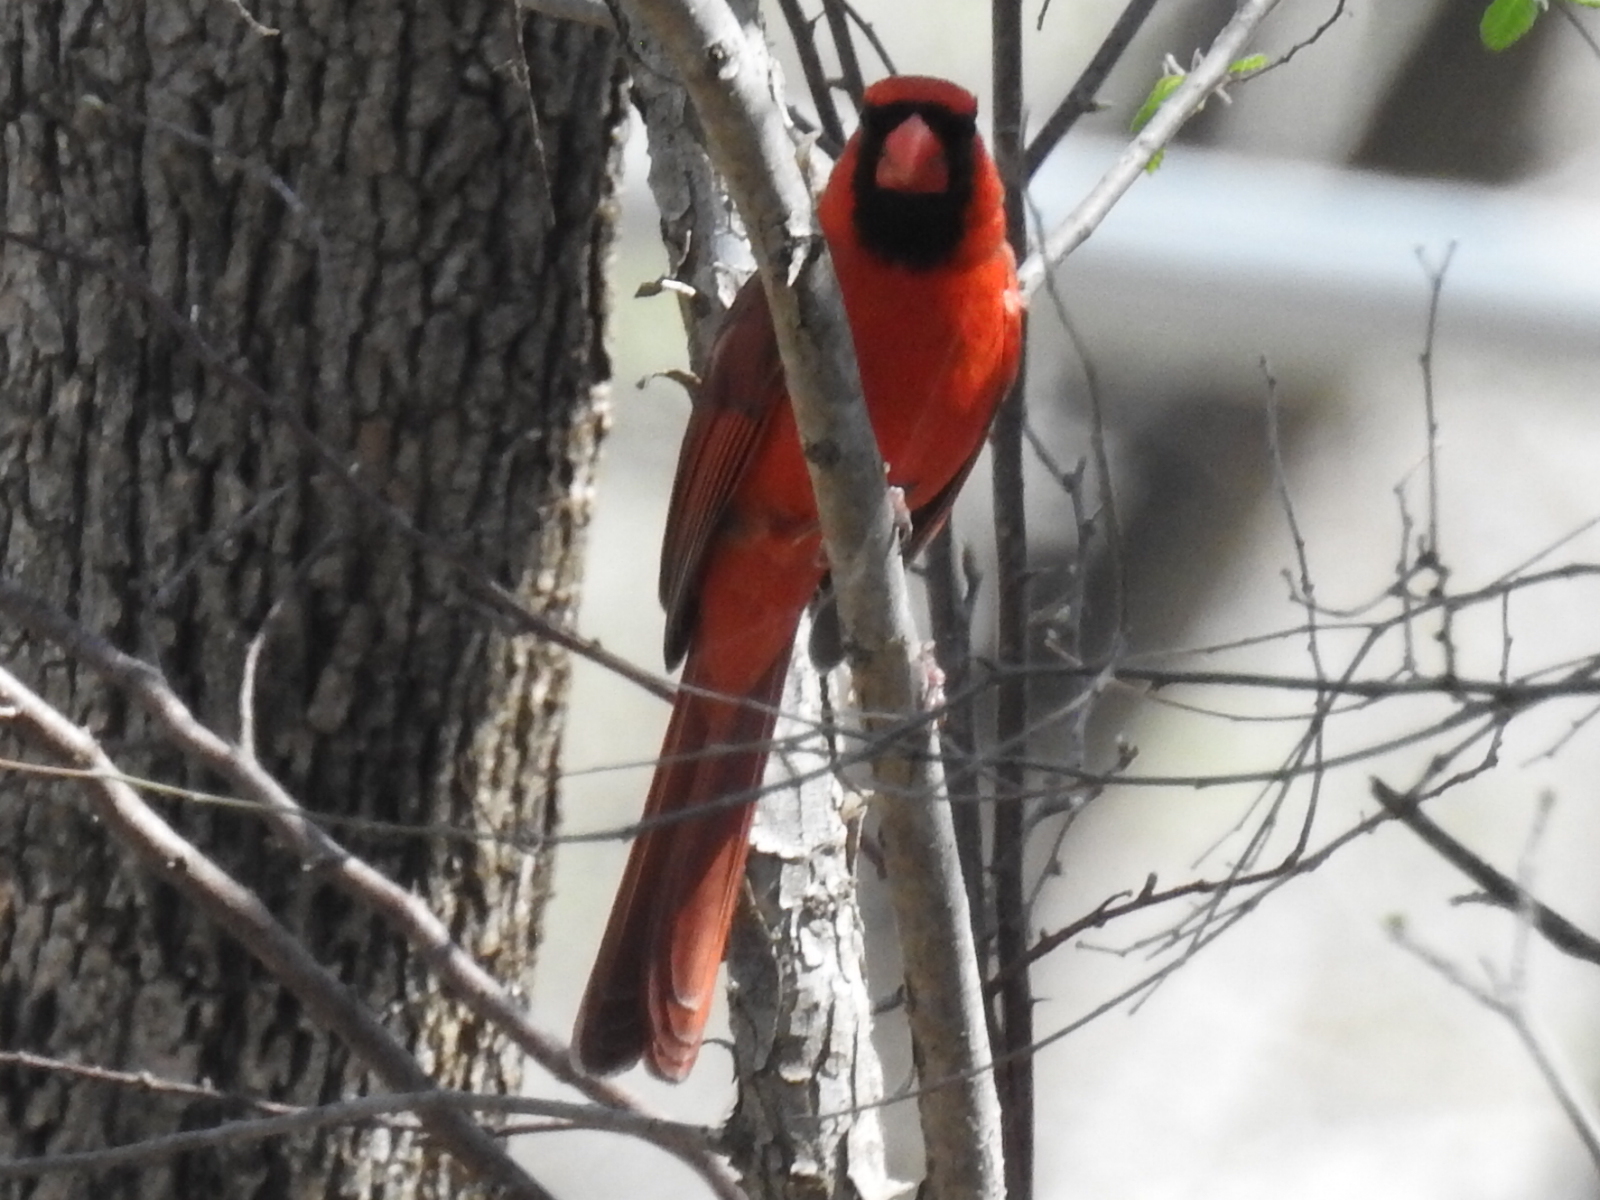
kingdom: Animalia
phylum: Chordata
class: Aves
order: Passeriformes
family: Cardinalidae
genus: Cardinalis
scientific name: Cardinalis cardinalis
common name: Northern cardinal
